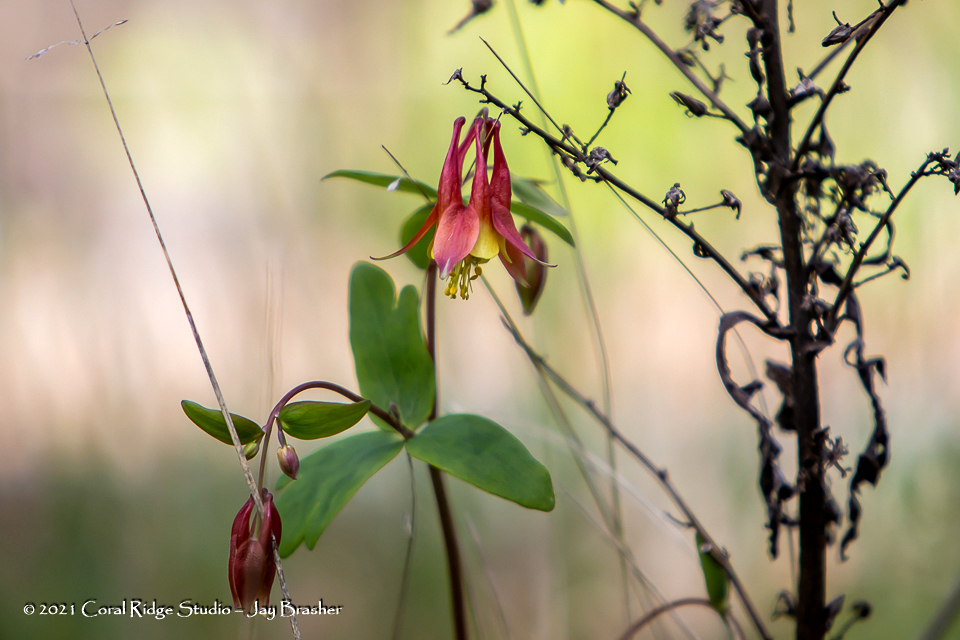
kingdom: Plantae
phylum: Tracheophyta
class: Magnoliopsida
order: Ranunculales
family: Ranunculaceae
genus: Aquilegia
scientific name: Aquilegia canadensis
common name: American columbine
